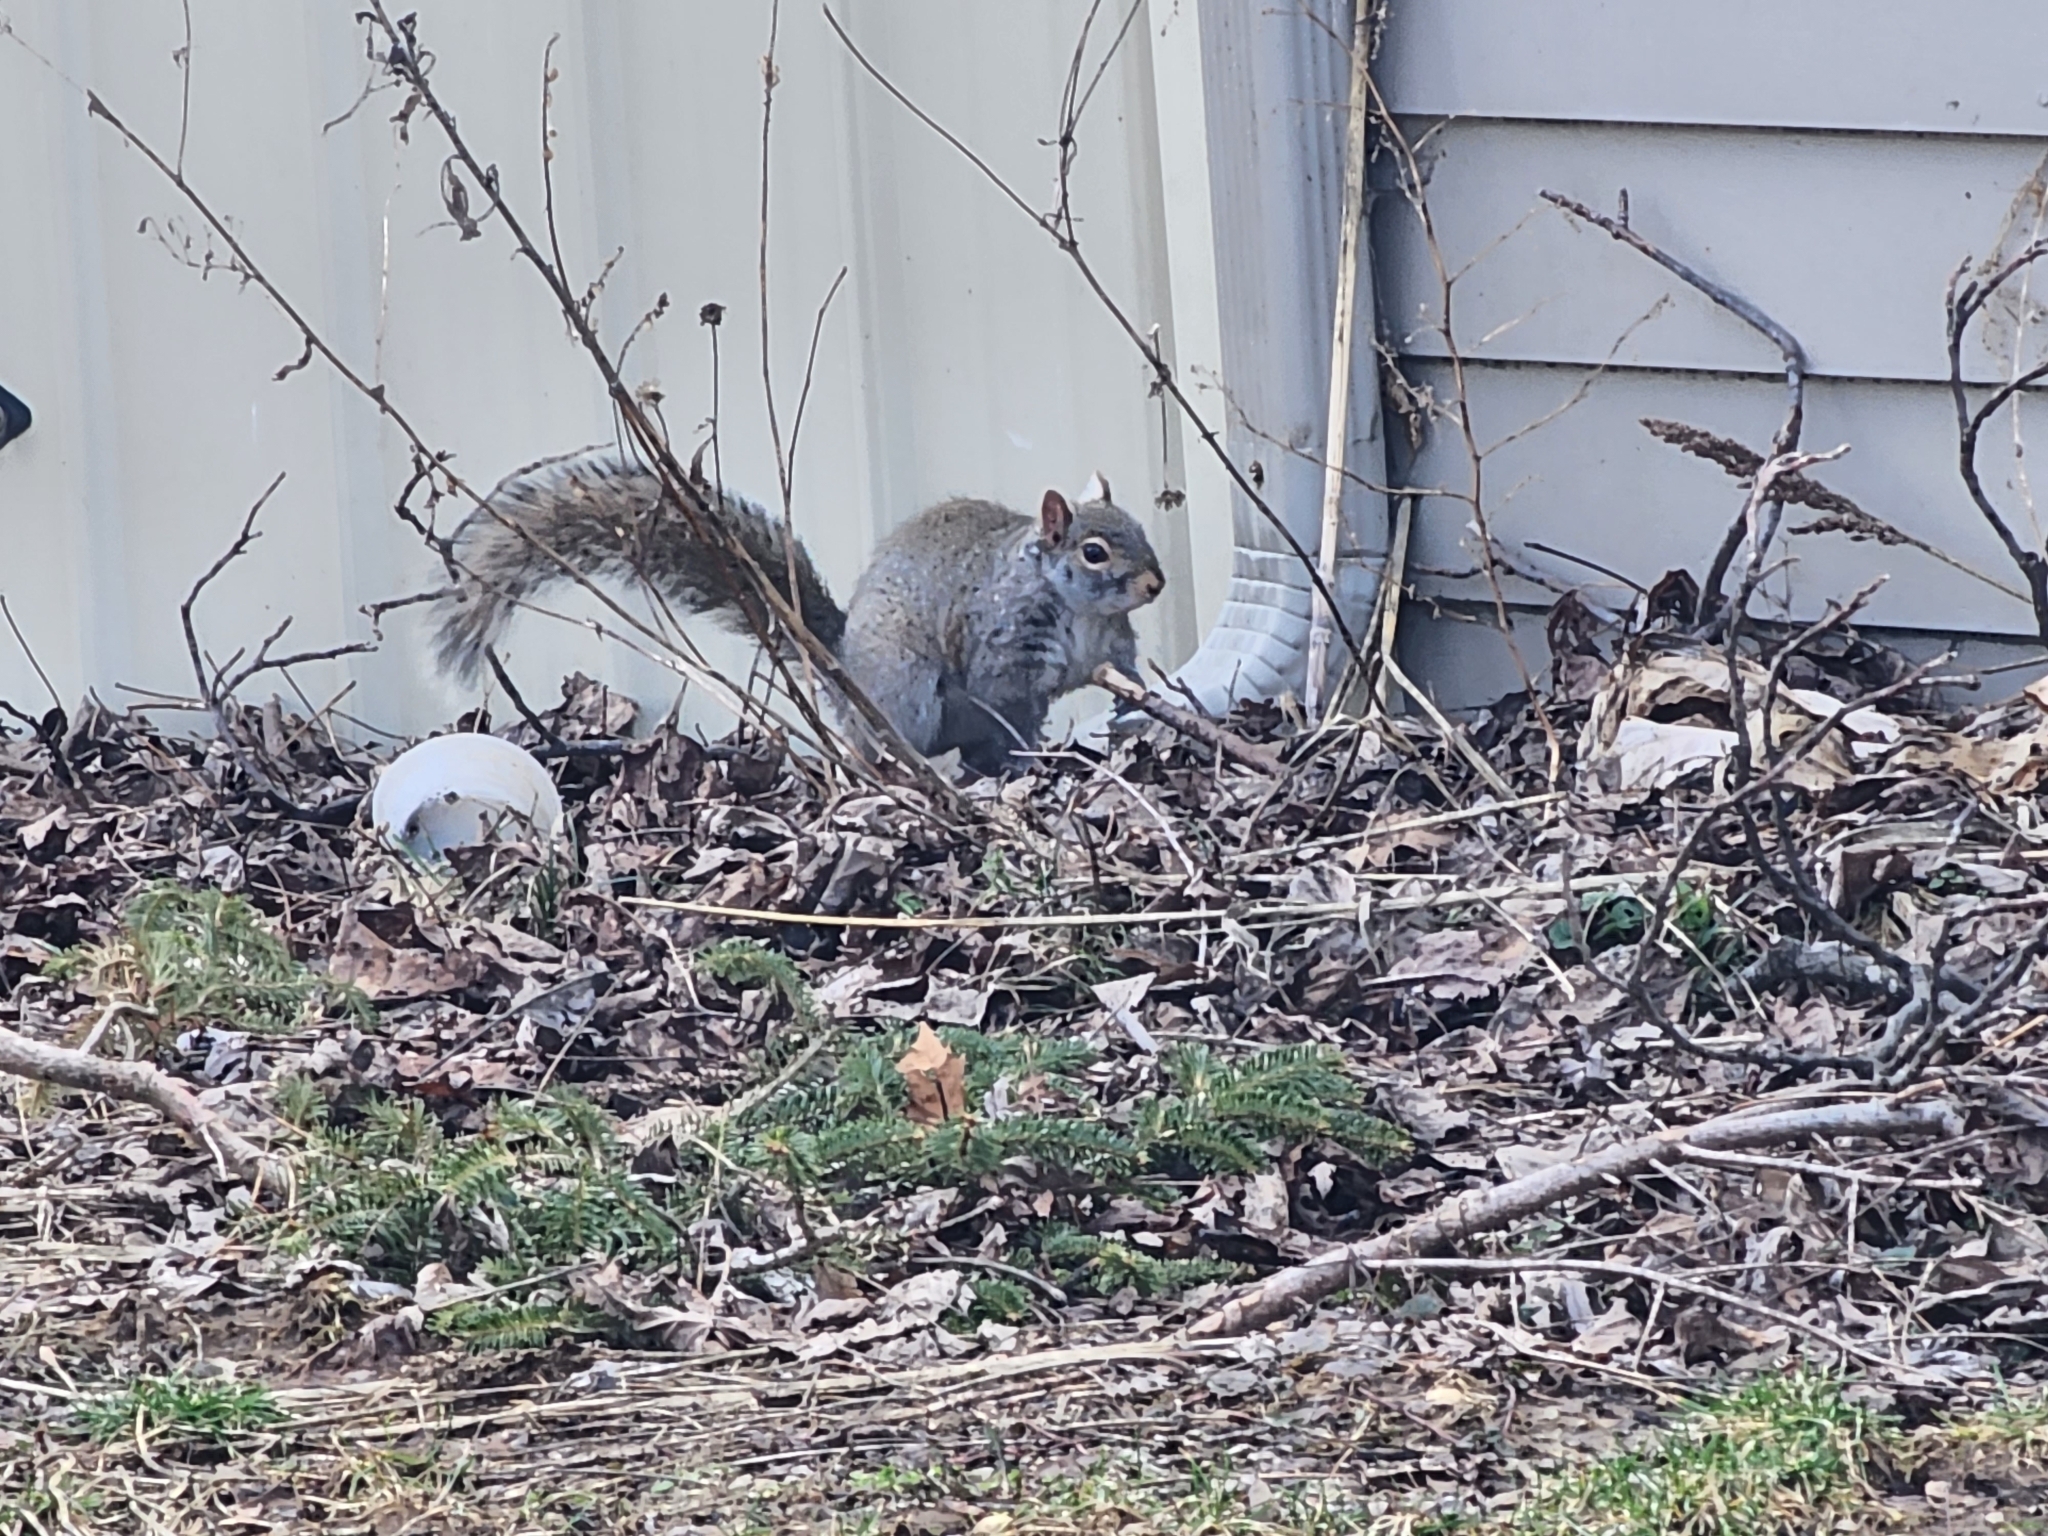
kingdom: Animalia
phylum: Chordata
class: Mammalia
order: Rodentia
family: Sciuridae
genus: Sciurus
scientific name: Sciurus carolinensis
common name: Eastern gray squirrel
